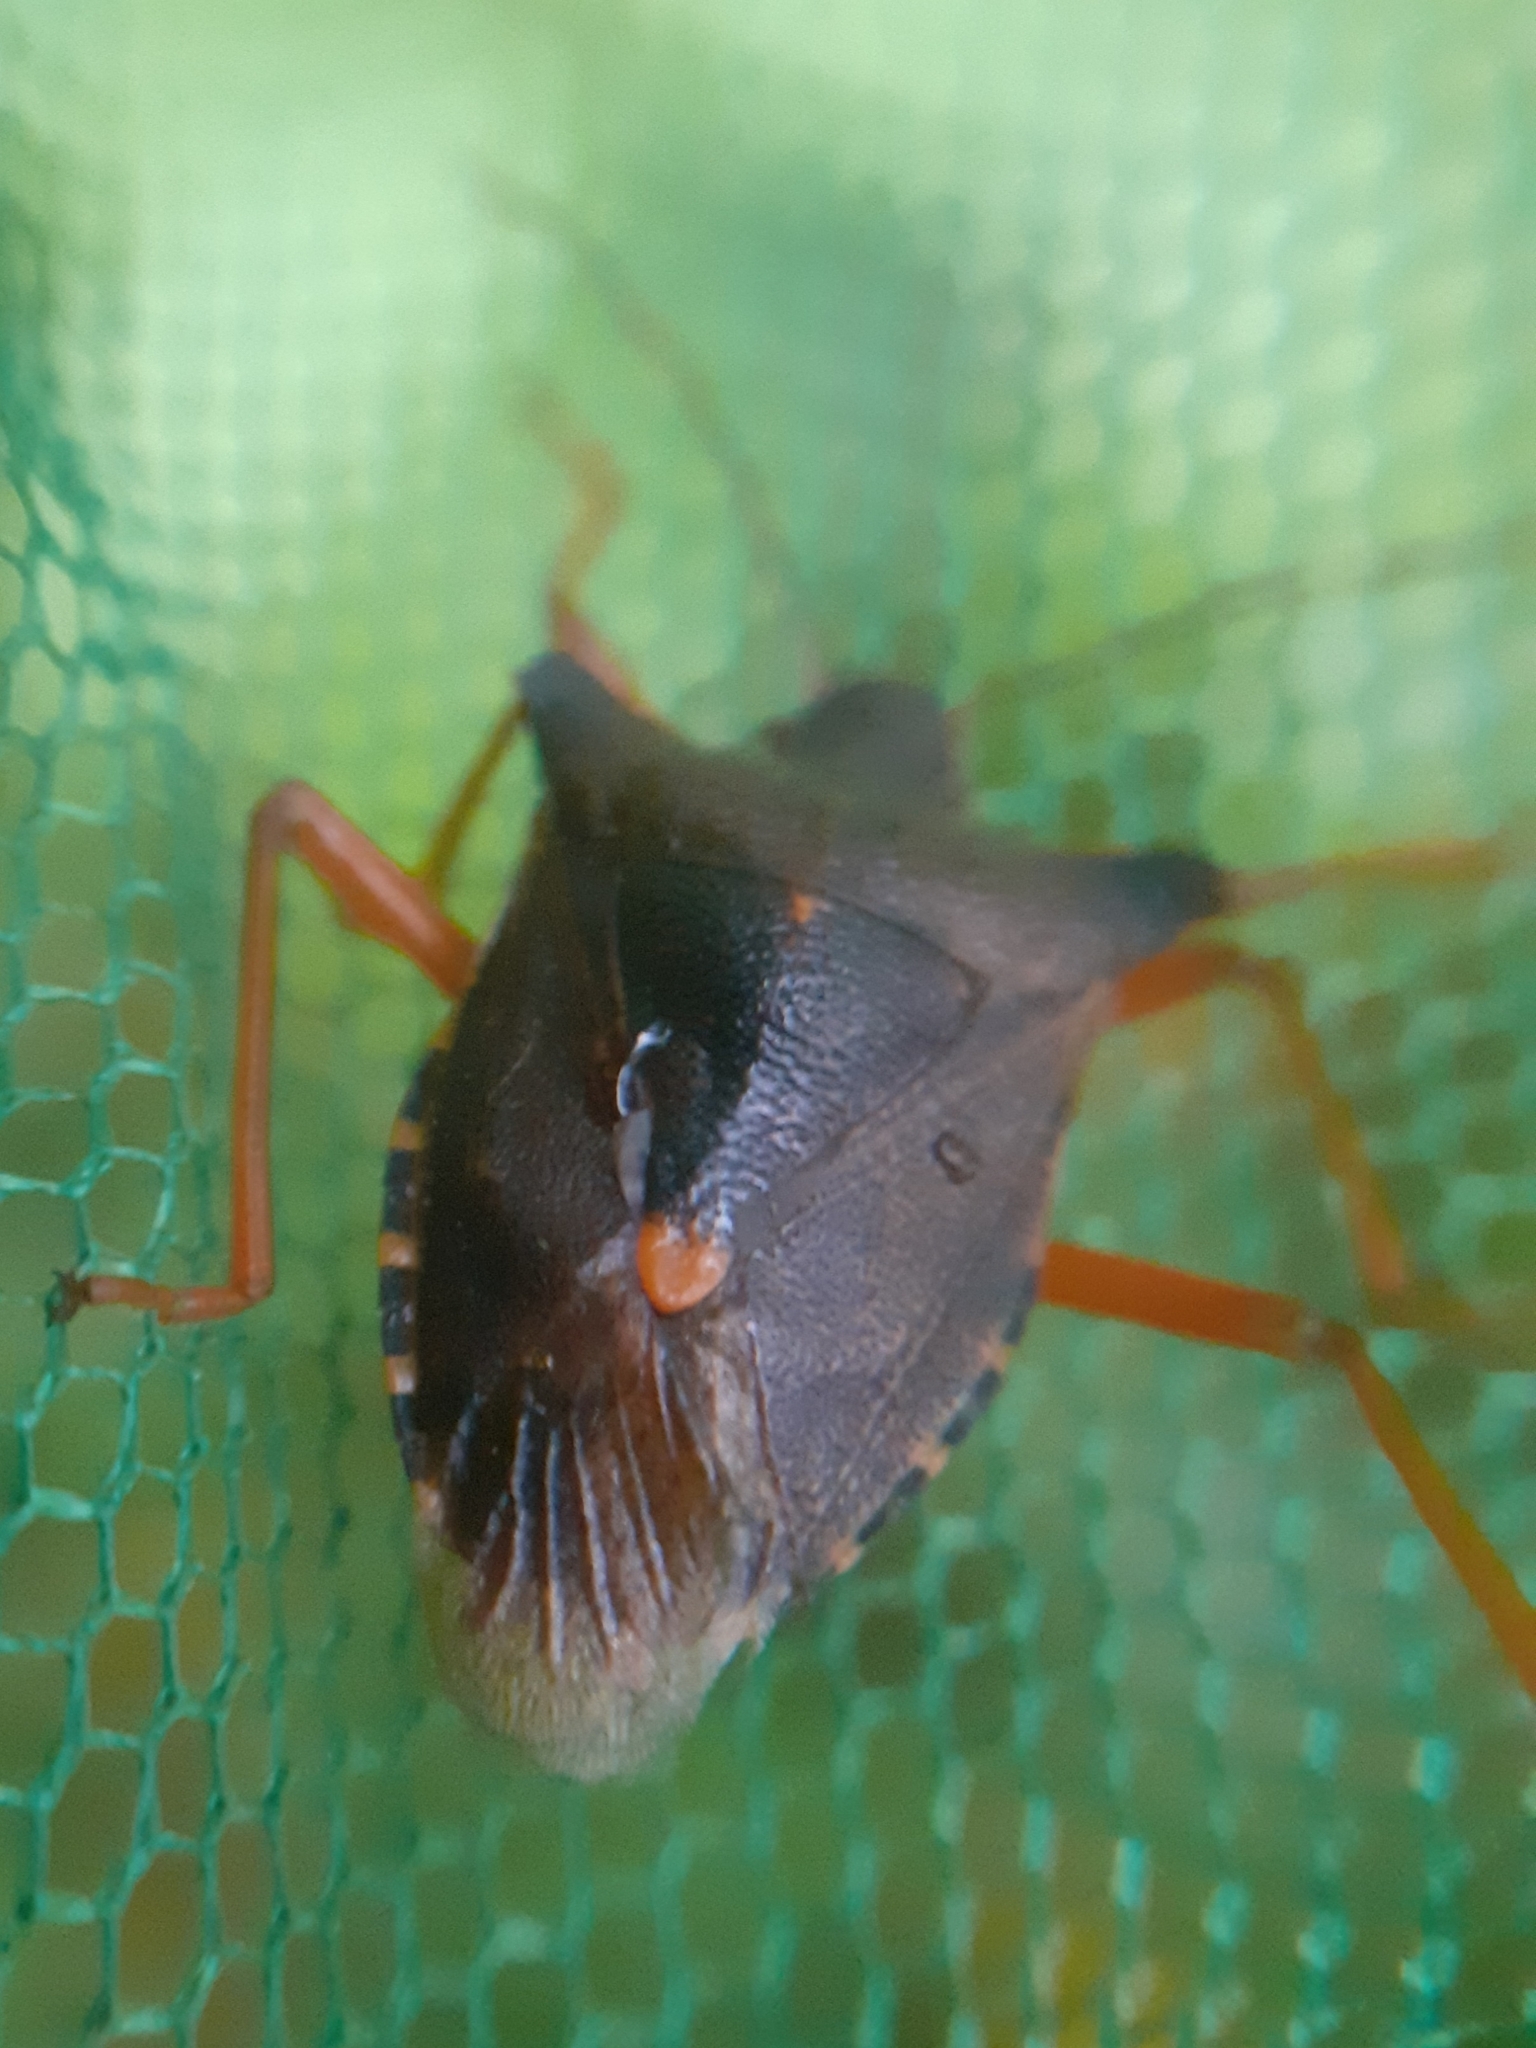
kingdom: Animalia
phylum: Arthropoda
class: Insecta
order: Hemiptera
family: Pentatomidae
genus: Pentatoma
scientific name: Pentatoma rufipes
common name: Forest bug
